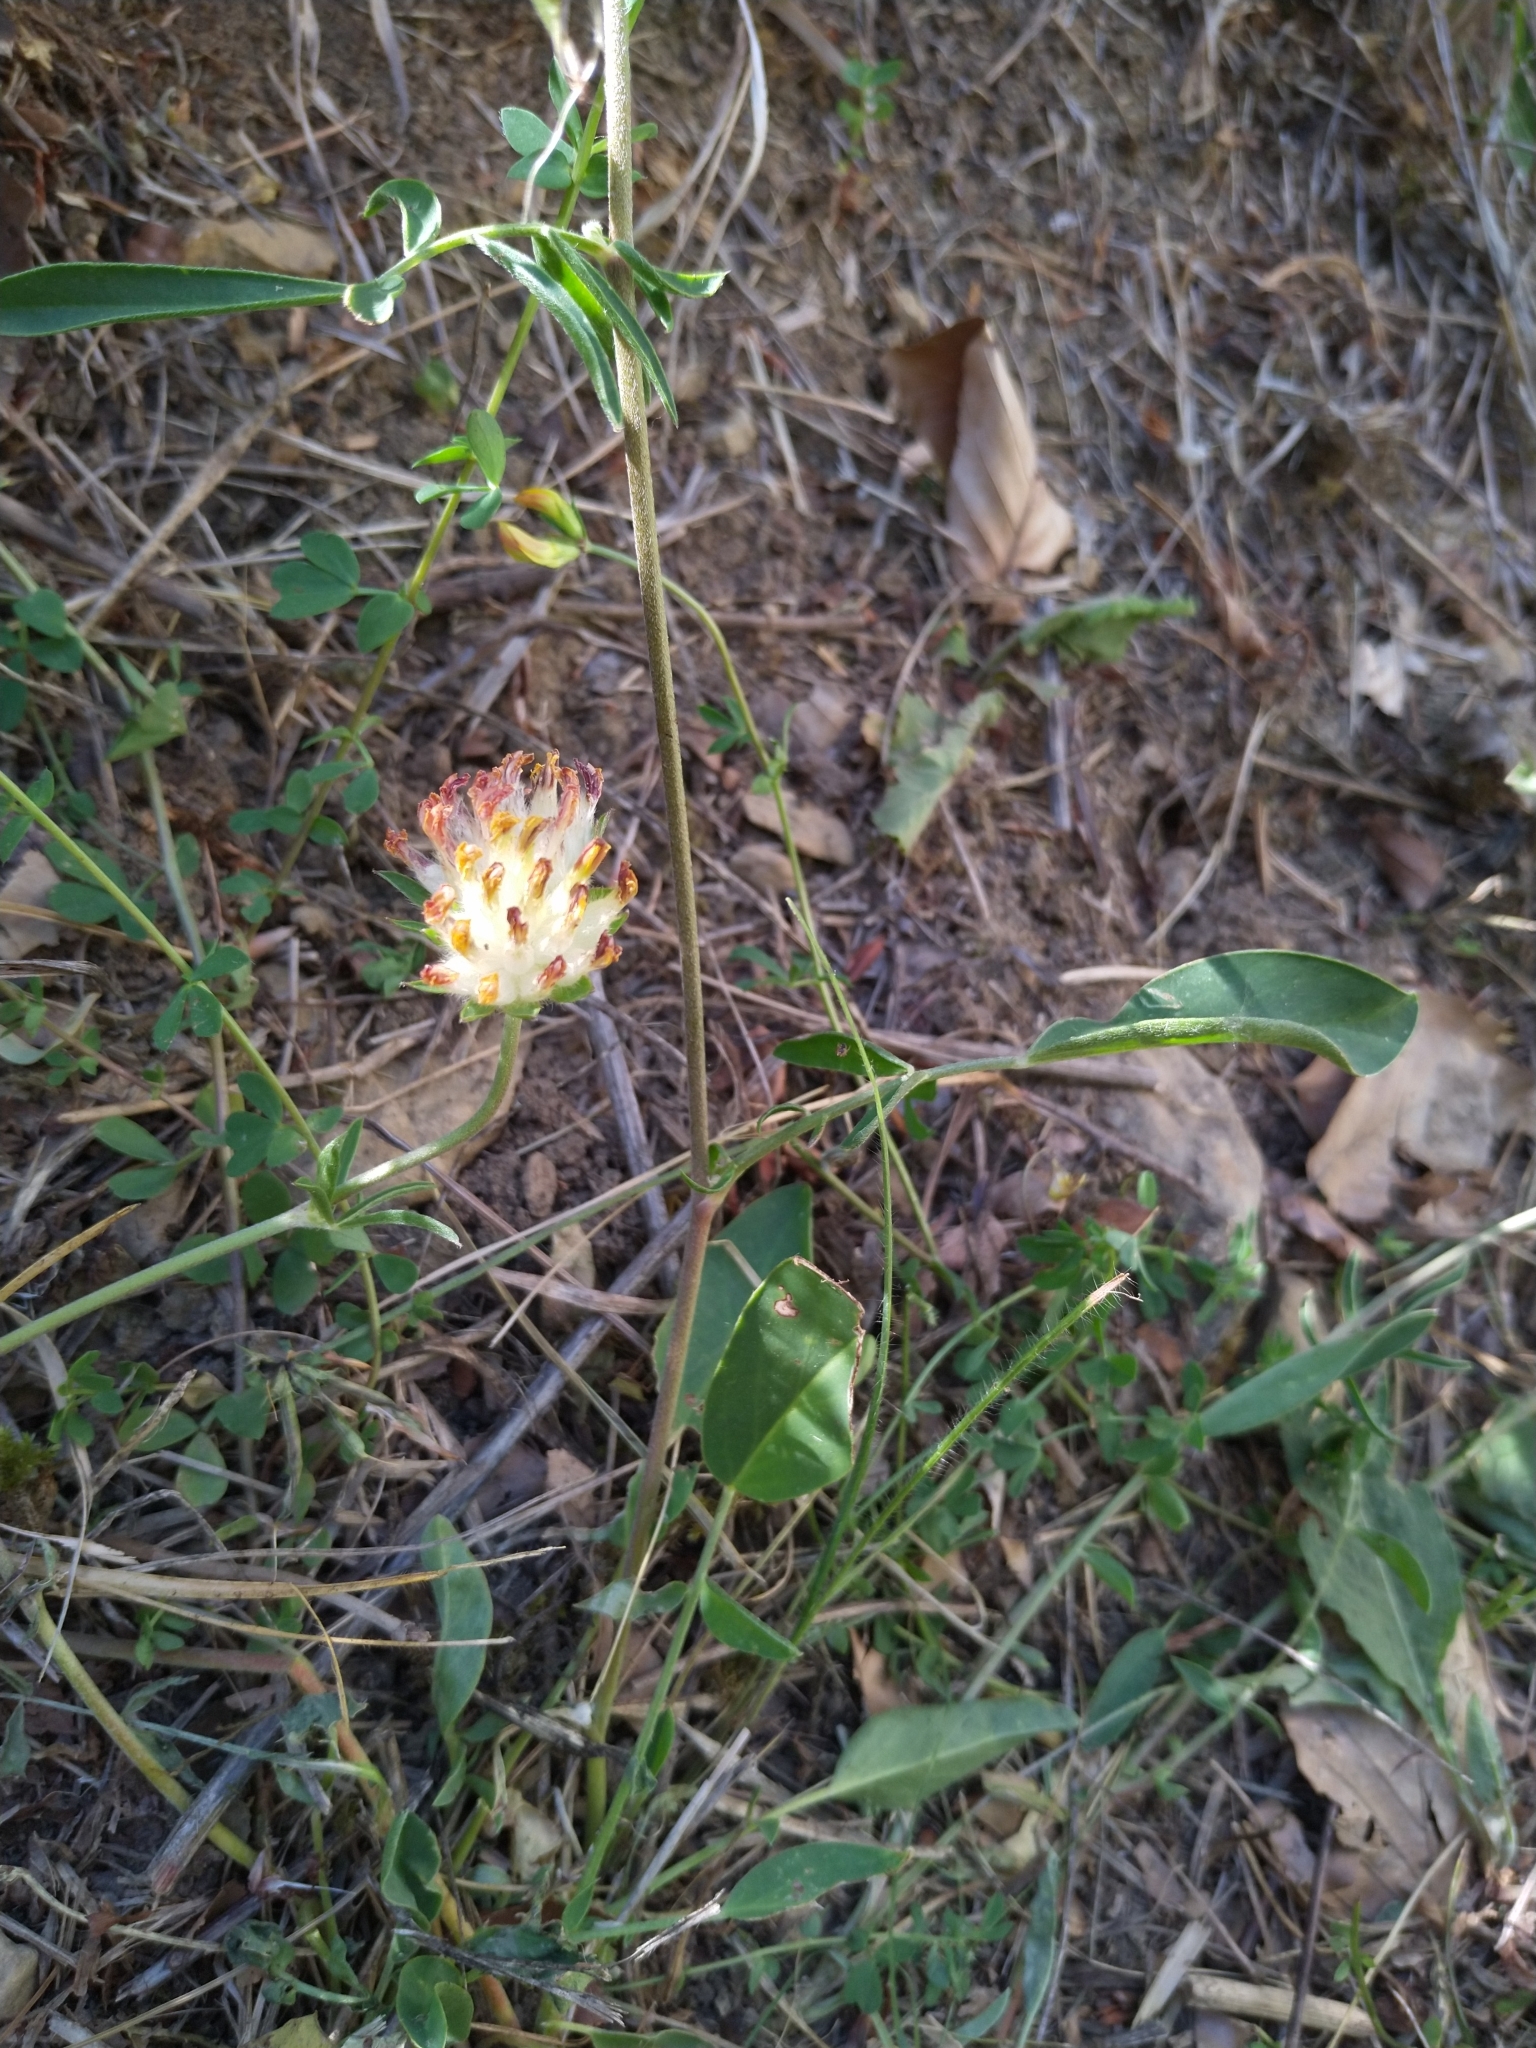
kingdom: Plantae
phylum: Tracheophyta
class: Magnoliopsida
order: Fabales
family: Fabaceae
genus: Anthyllis
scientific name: Anthyllis vulneraria
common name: Kidney vetch
